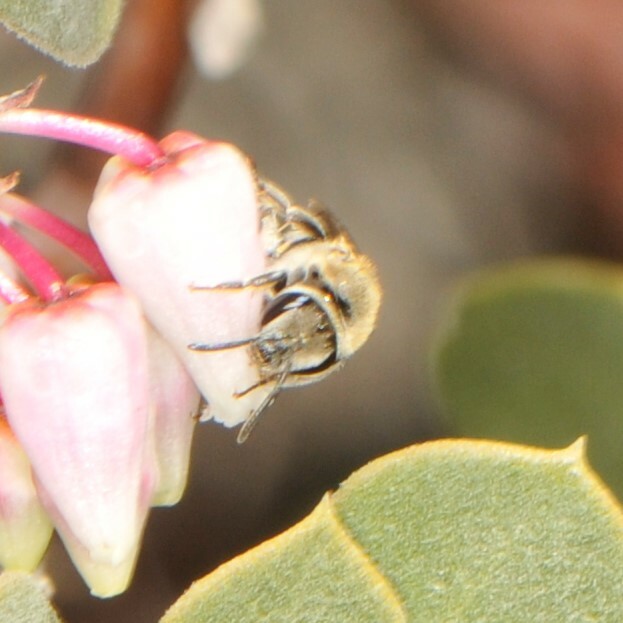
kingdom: Animalia
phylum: Arthropoda
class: Insecta
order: Hymenoptera
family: Halictidae
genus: Lasioglossum
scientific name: Lasioglossum sisymbrii
